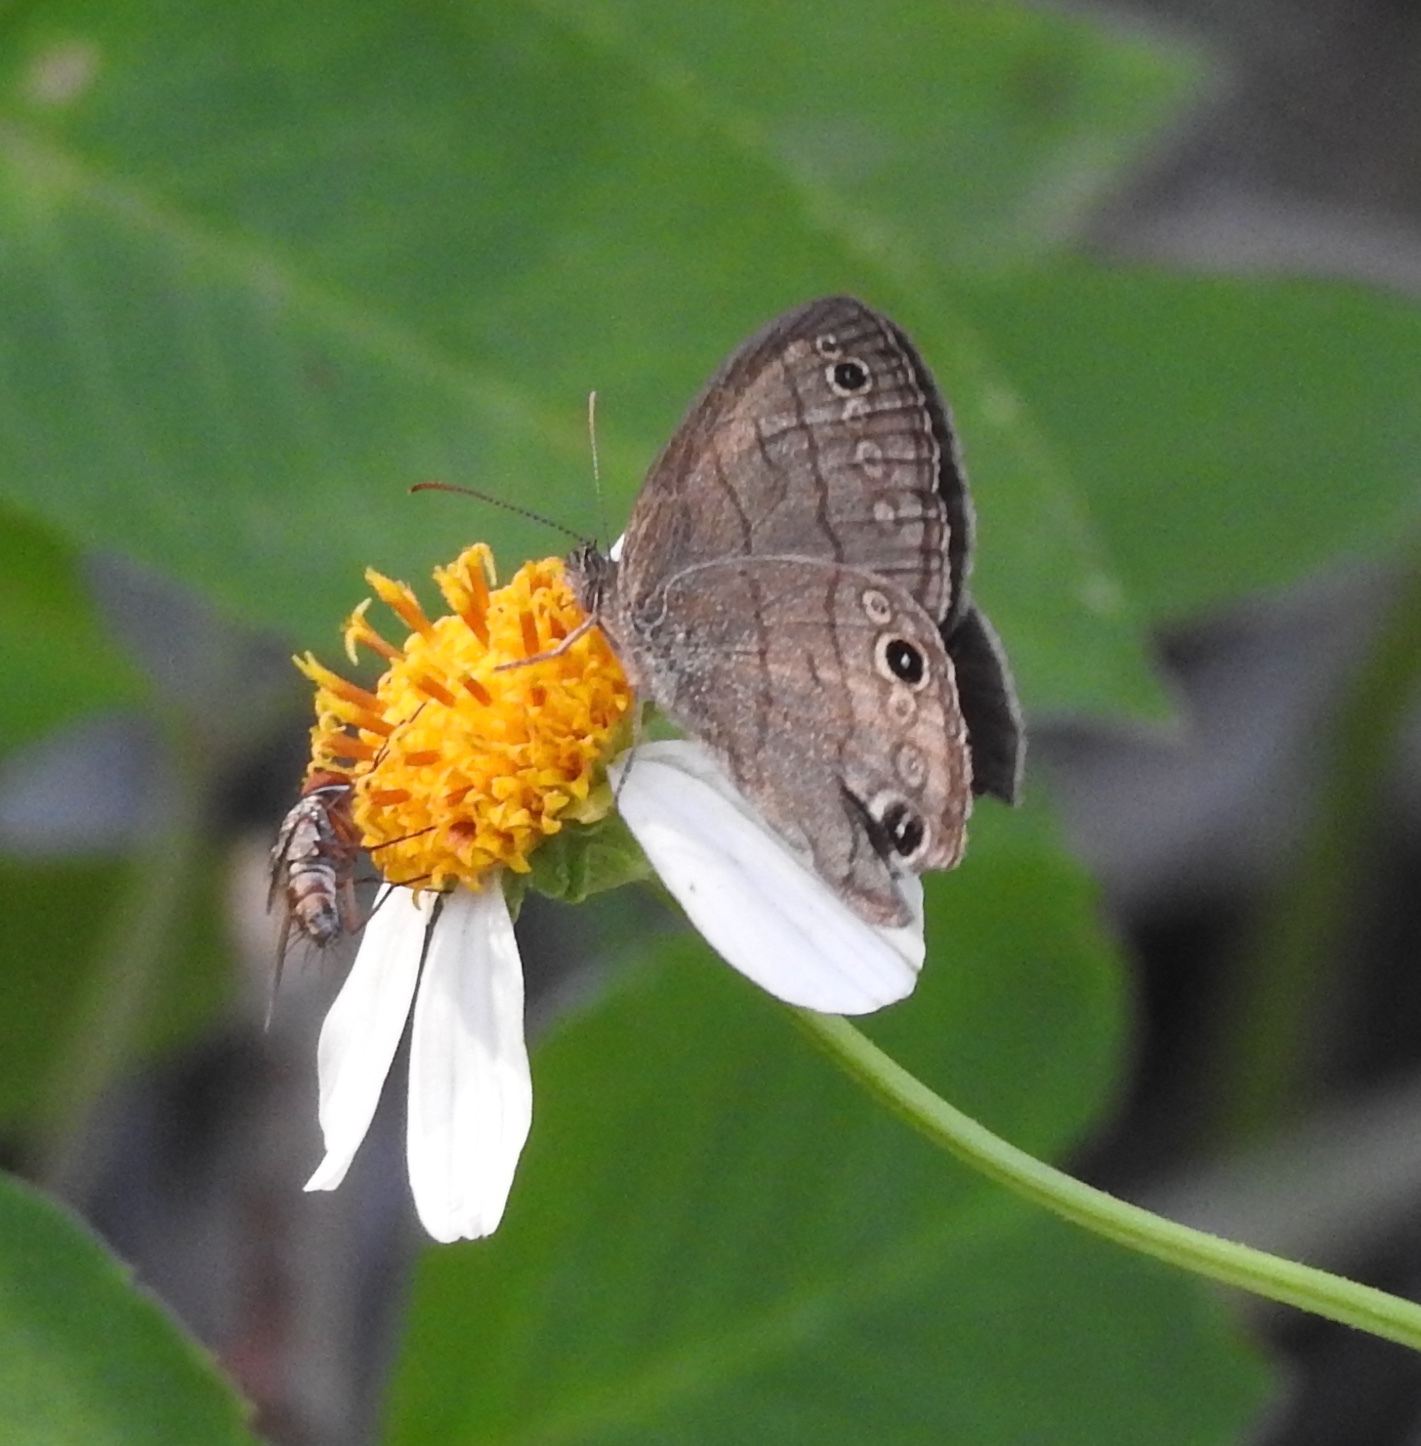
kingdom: Animalia
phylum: Arthropoda
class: Insecta
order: Lepidoptera
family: Nymphalidae
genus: Hermeuptychia
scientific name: Hermeuptychia hermes
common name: Hermes satyr
